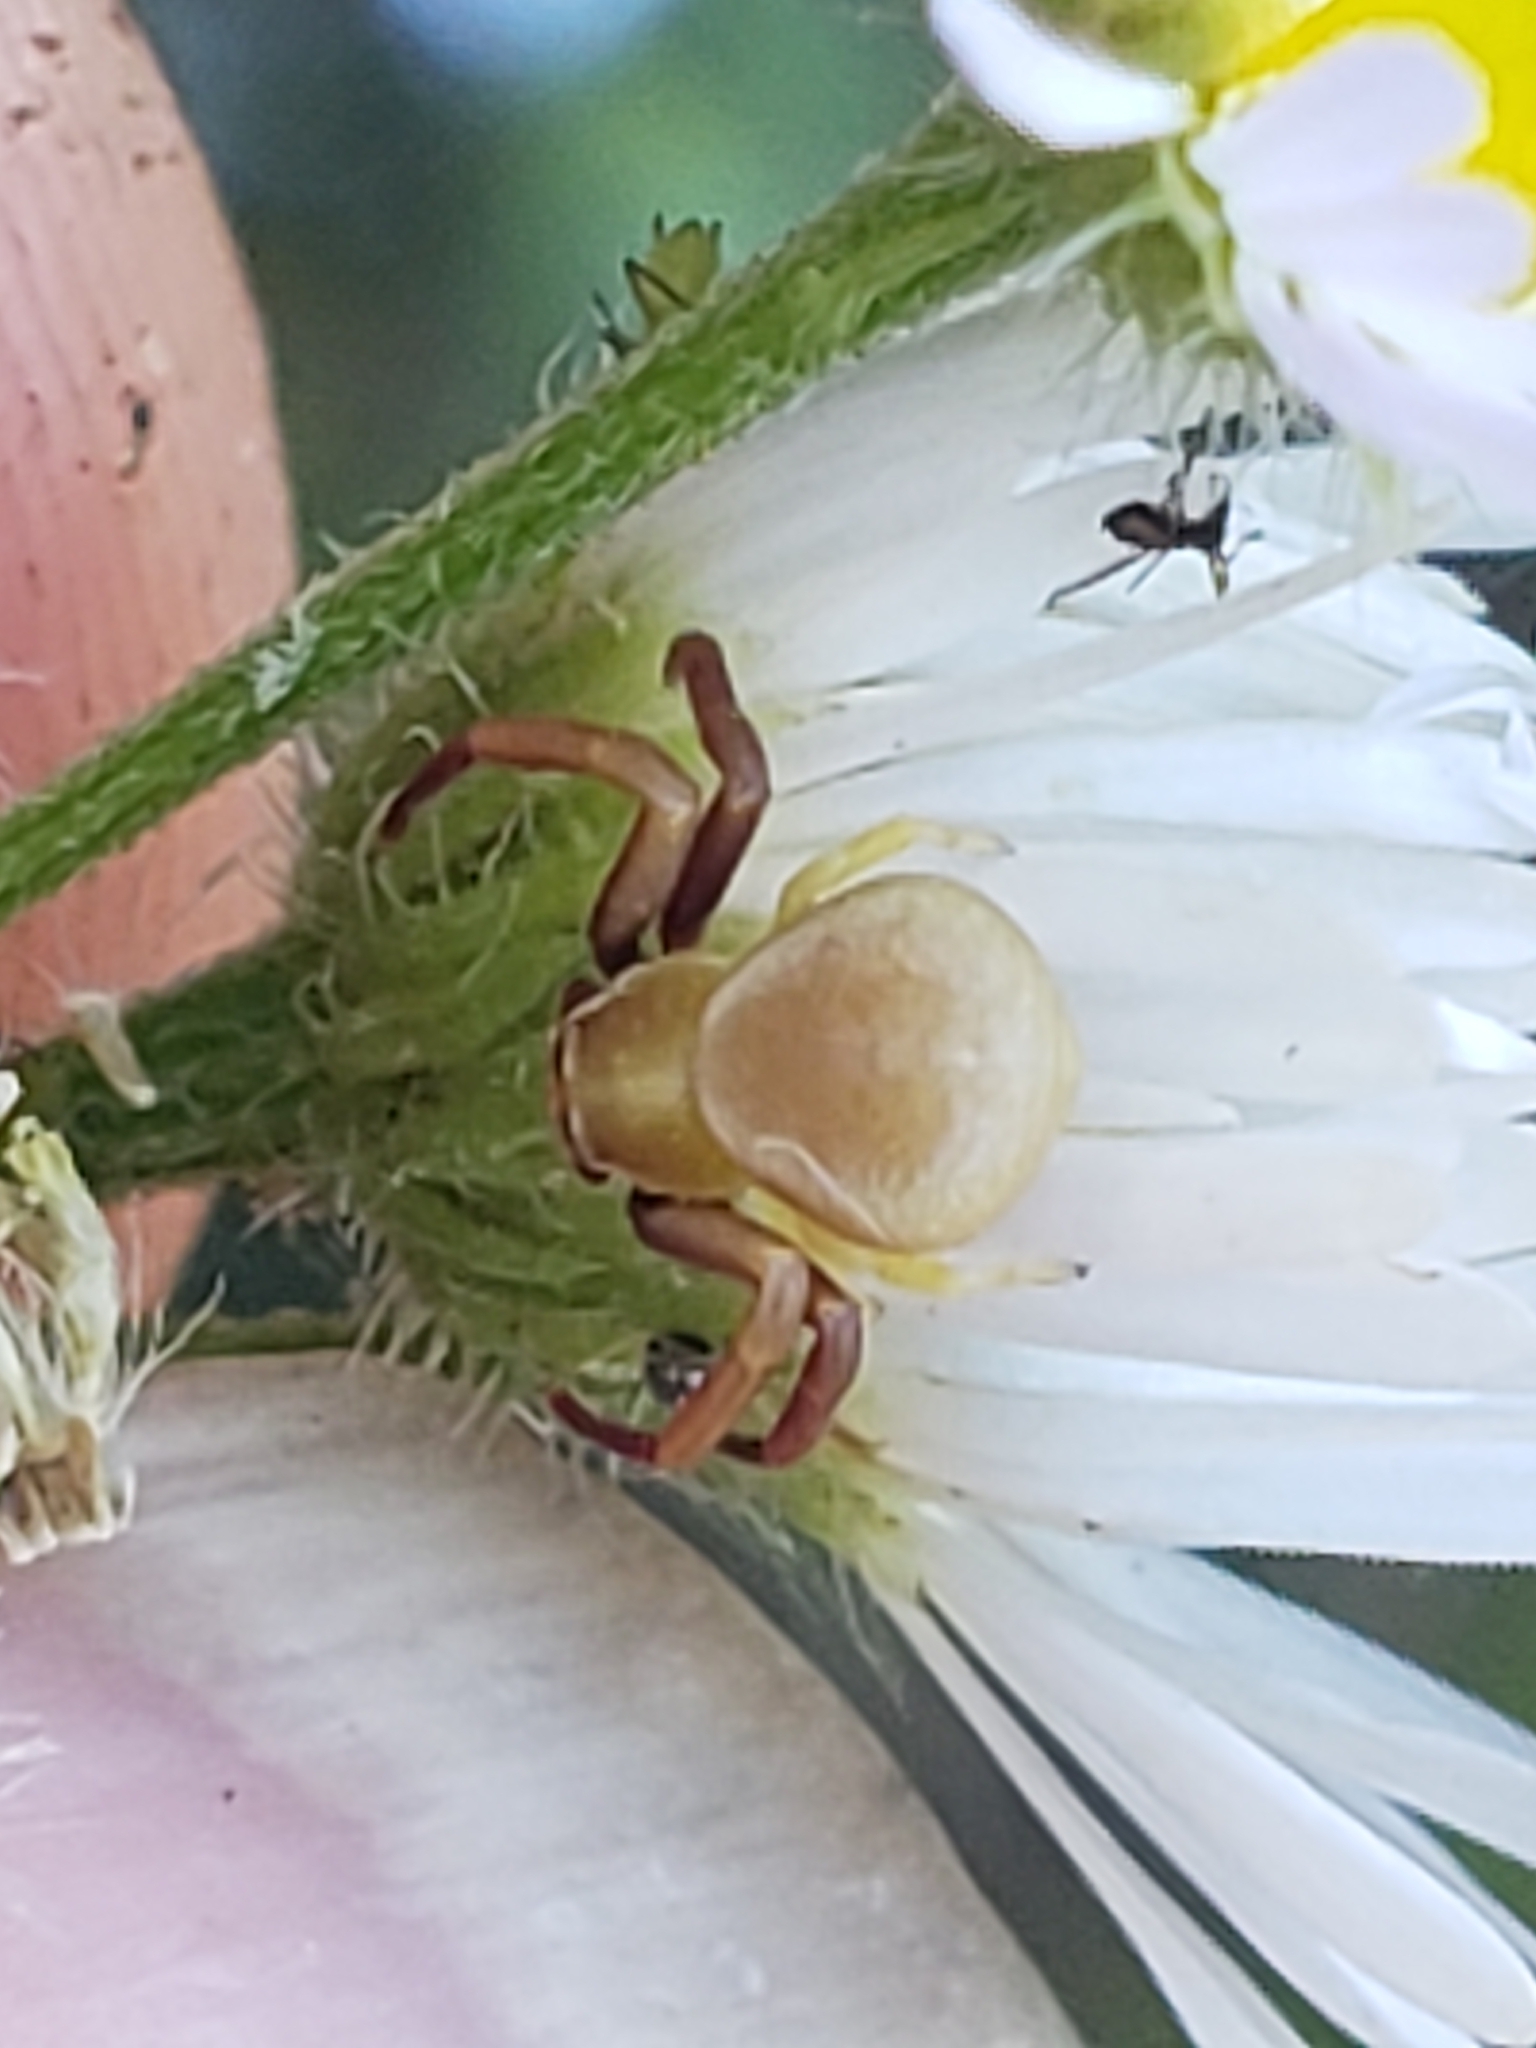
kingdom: Animalia
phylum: Arthropoda
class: Arachnida
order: Araneae
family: Thomisidae
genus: Misumenoides
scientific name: Misumenoides formosipes
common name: White-banded crab spider
